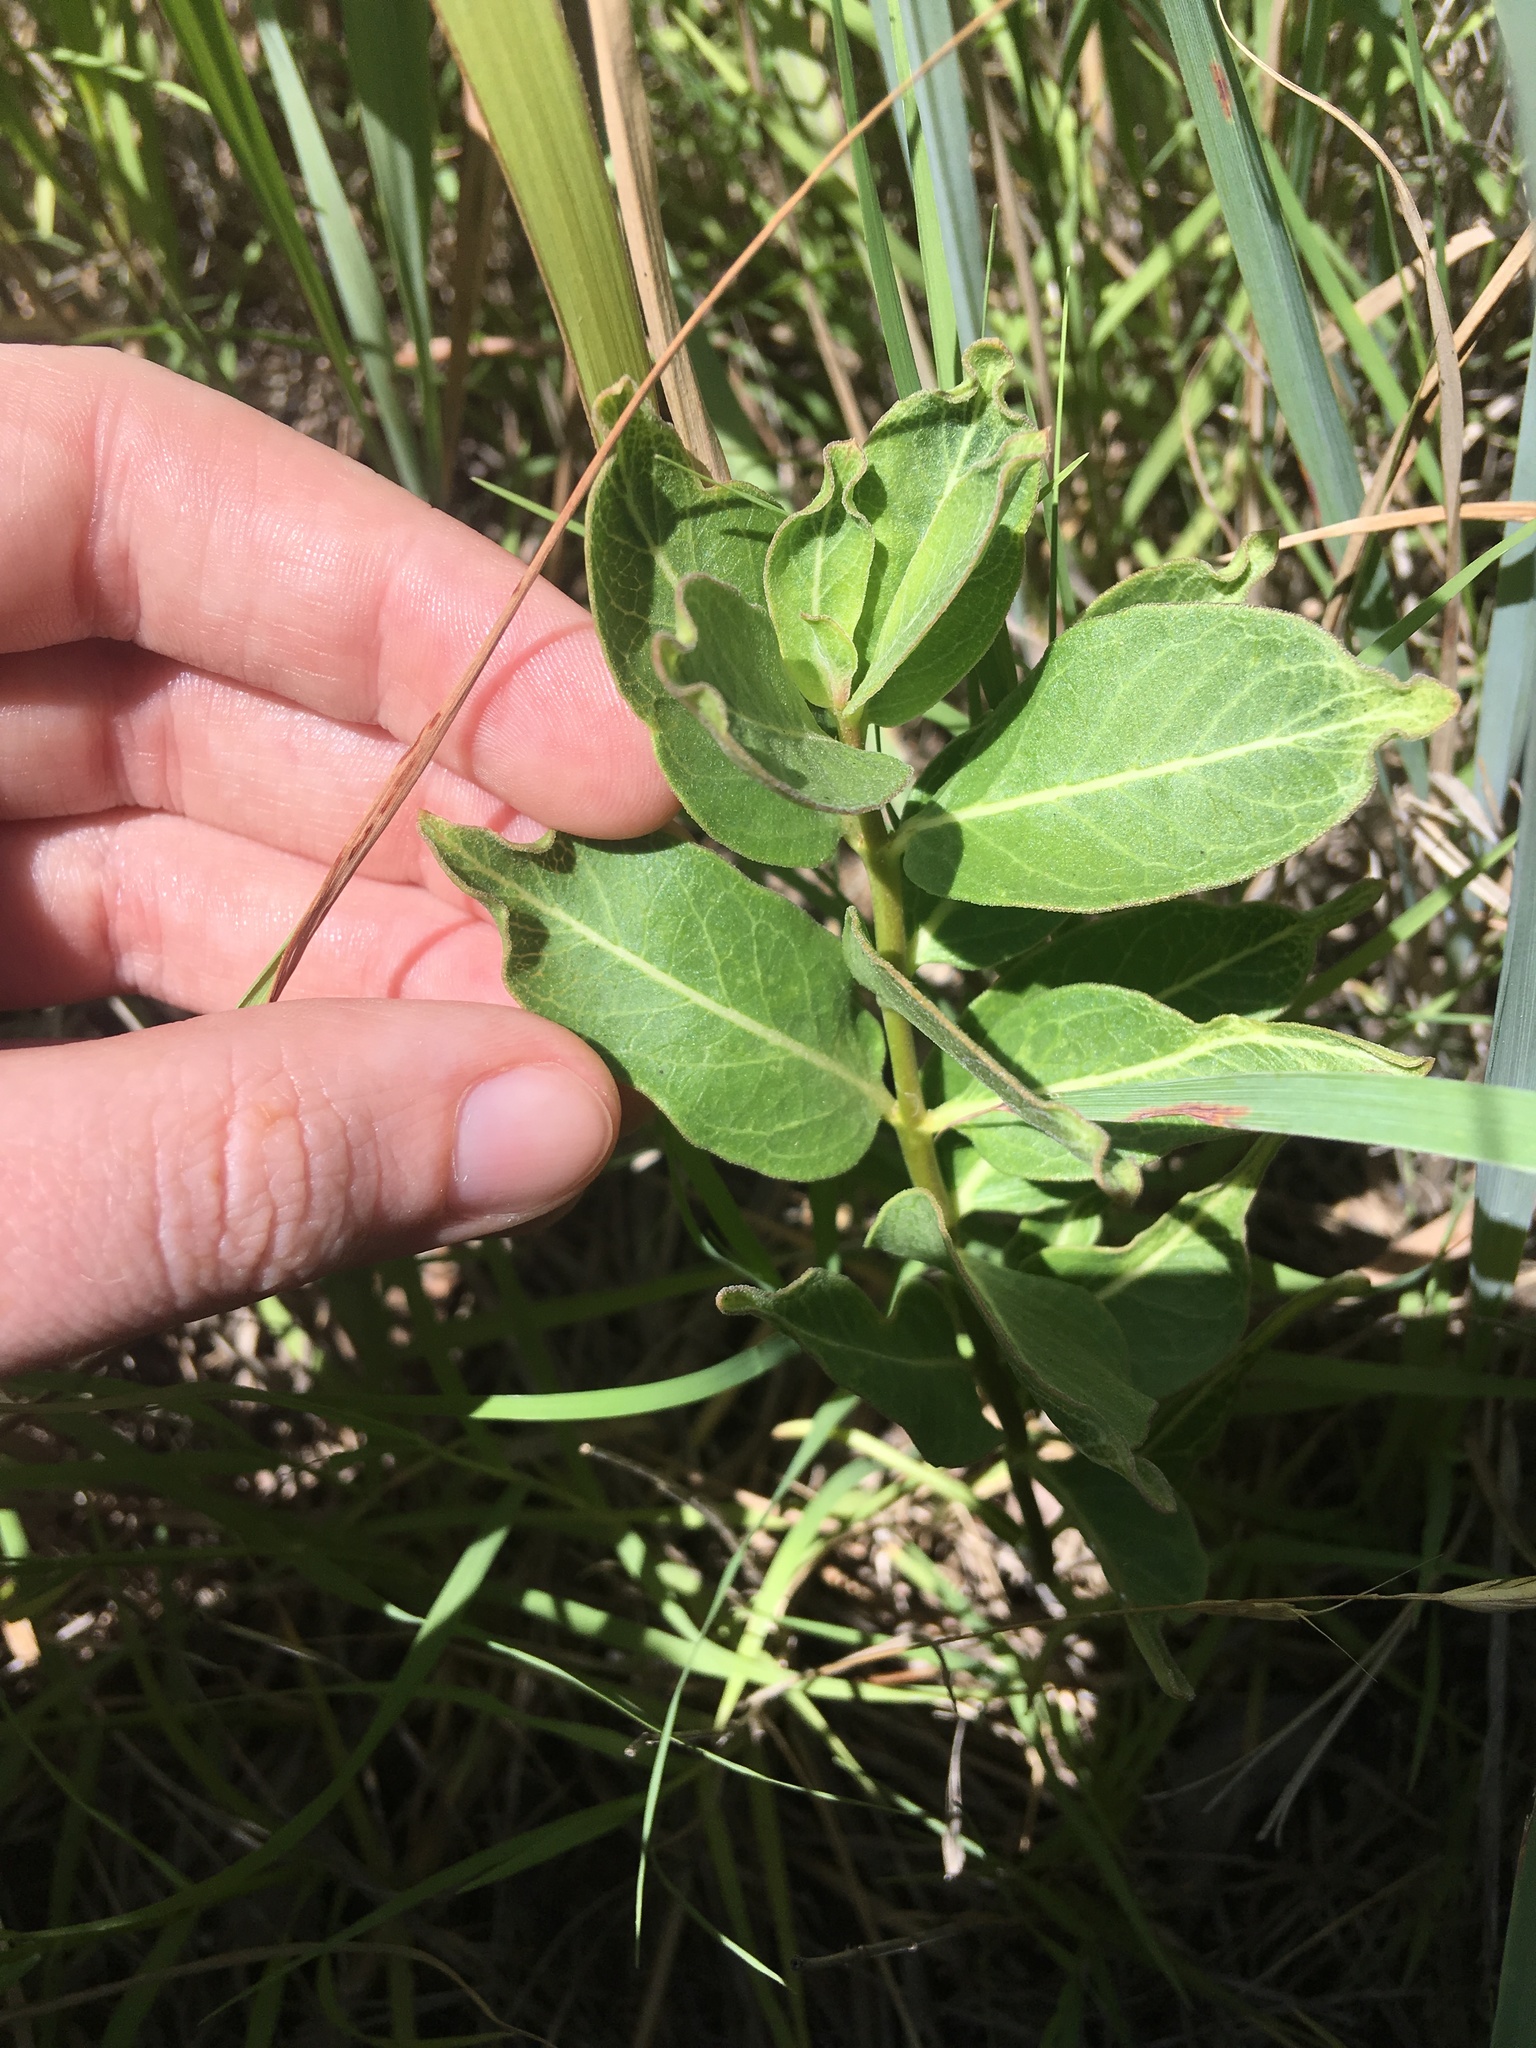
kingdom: Plantae
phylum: Tracheophyta
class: Magnoliopsida
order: Gentianales
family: Apocynaceae
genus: Asclepias
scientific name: Asclepias viridis
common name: Antelope-horns
